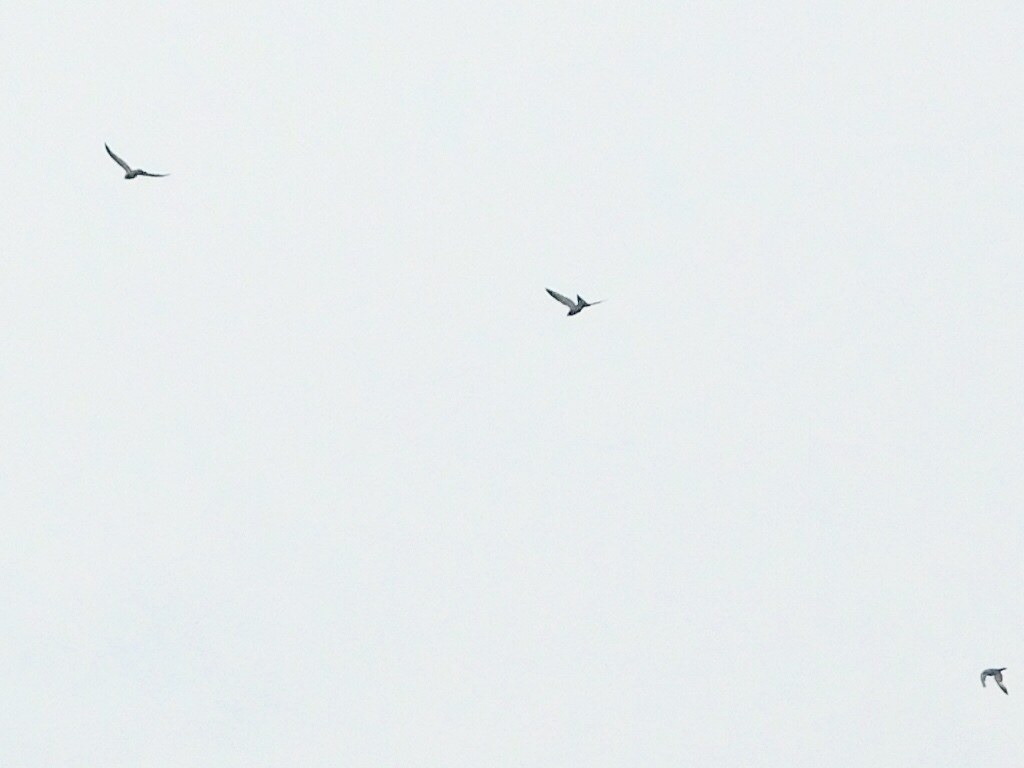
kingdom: Animalia
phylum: Chordata
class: Aves
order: Columbiformes
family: Columbidae
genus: Columba
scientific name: Columba livia
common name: Rock pigeon
